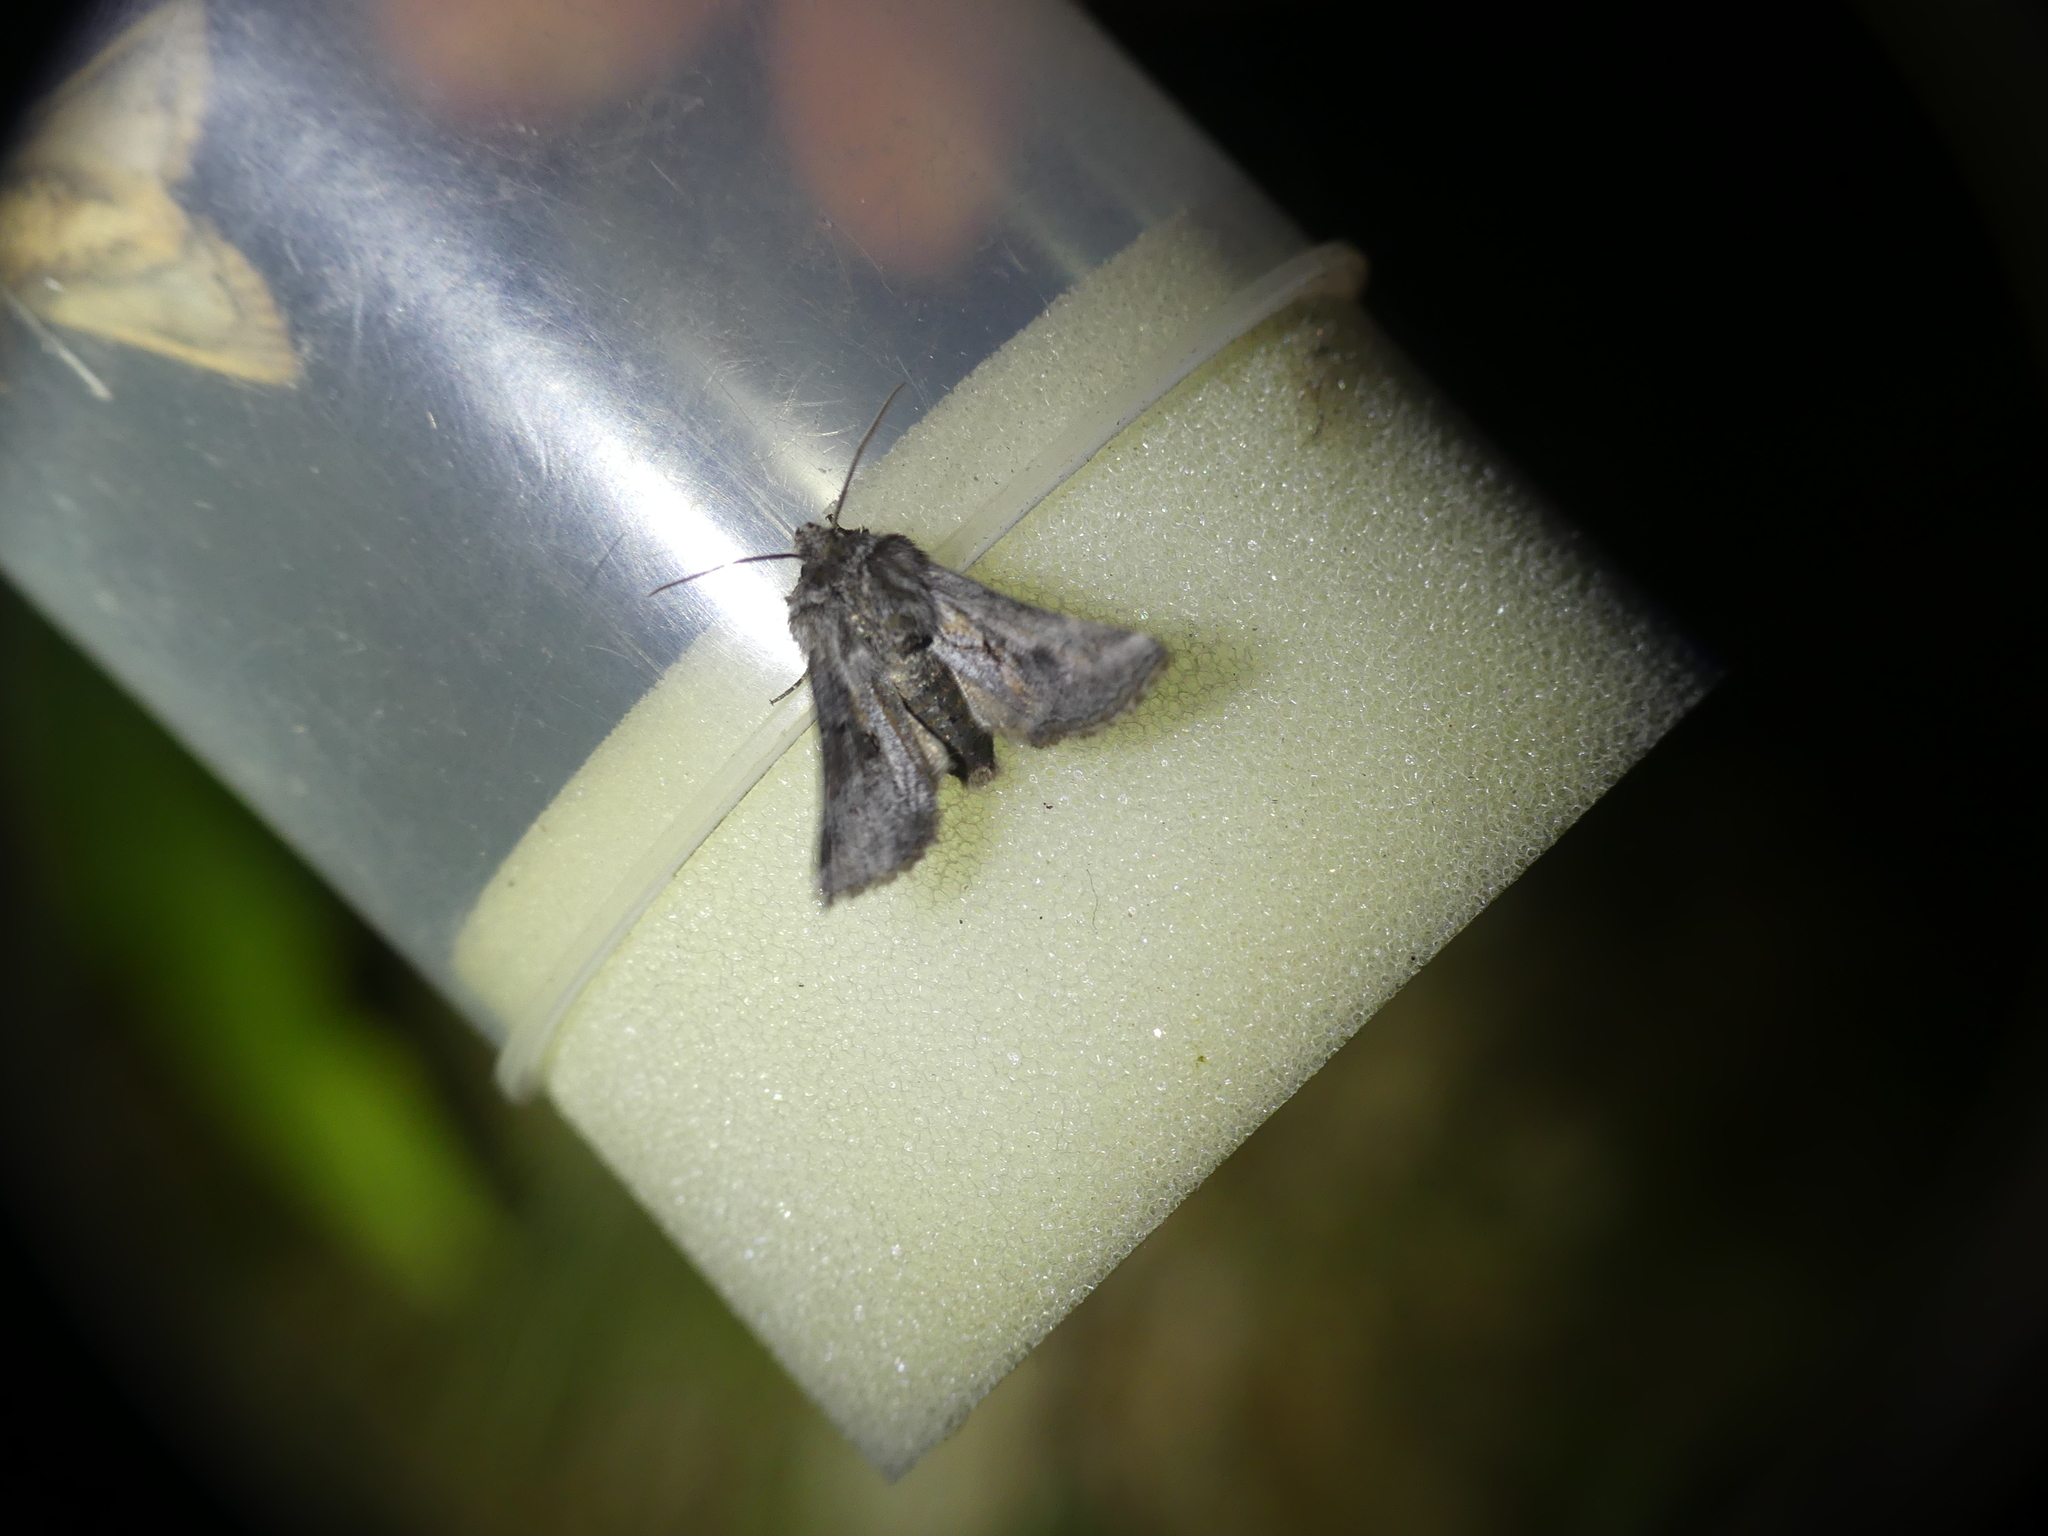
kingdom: Animalia
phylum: Arthropoda
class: Insecta
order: Lepidoptera
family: Noctuidae
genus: Cleonymia
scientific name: Cleonymia yvanii
